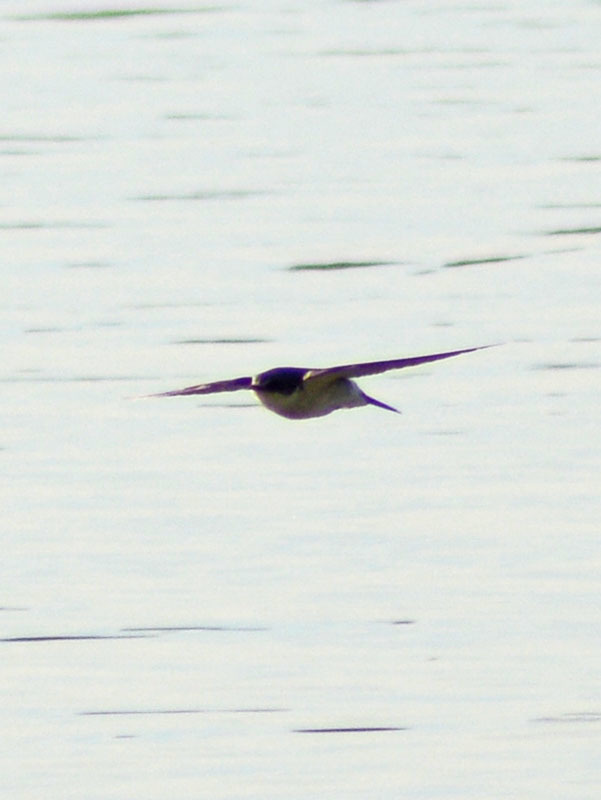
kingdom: Animalia
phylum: Chordata
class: Aves
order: Passeriformes
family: Hirundinidae
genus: Tachycineta
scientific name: Tachycineta bicolor
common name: Tree swallow
